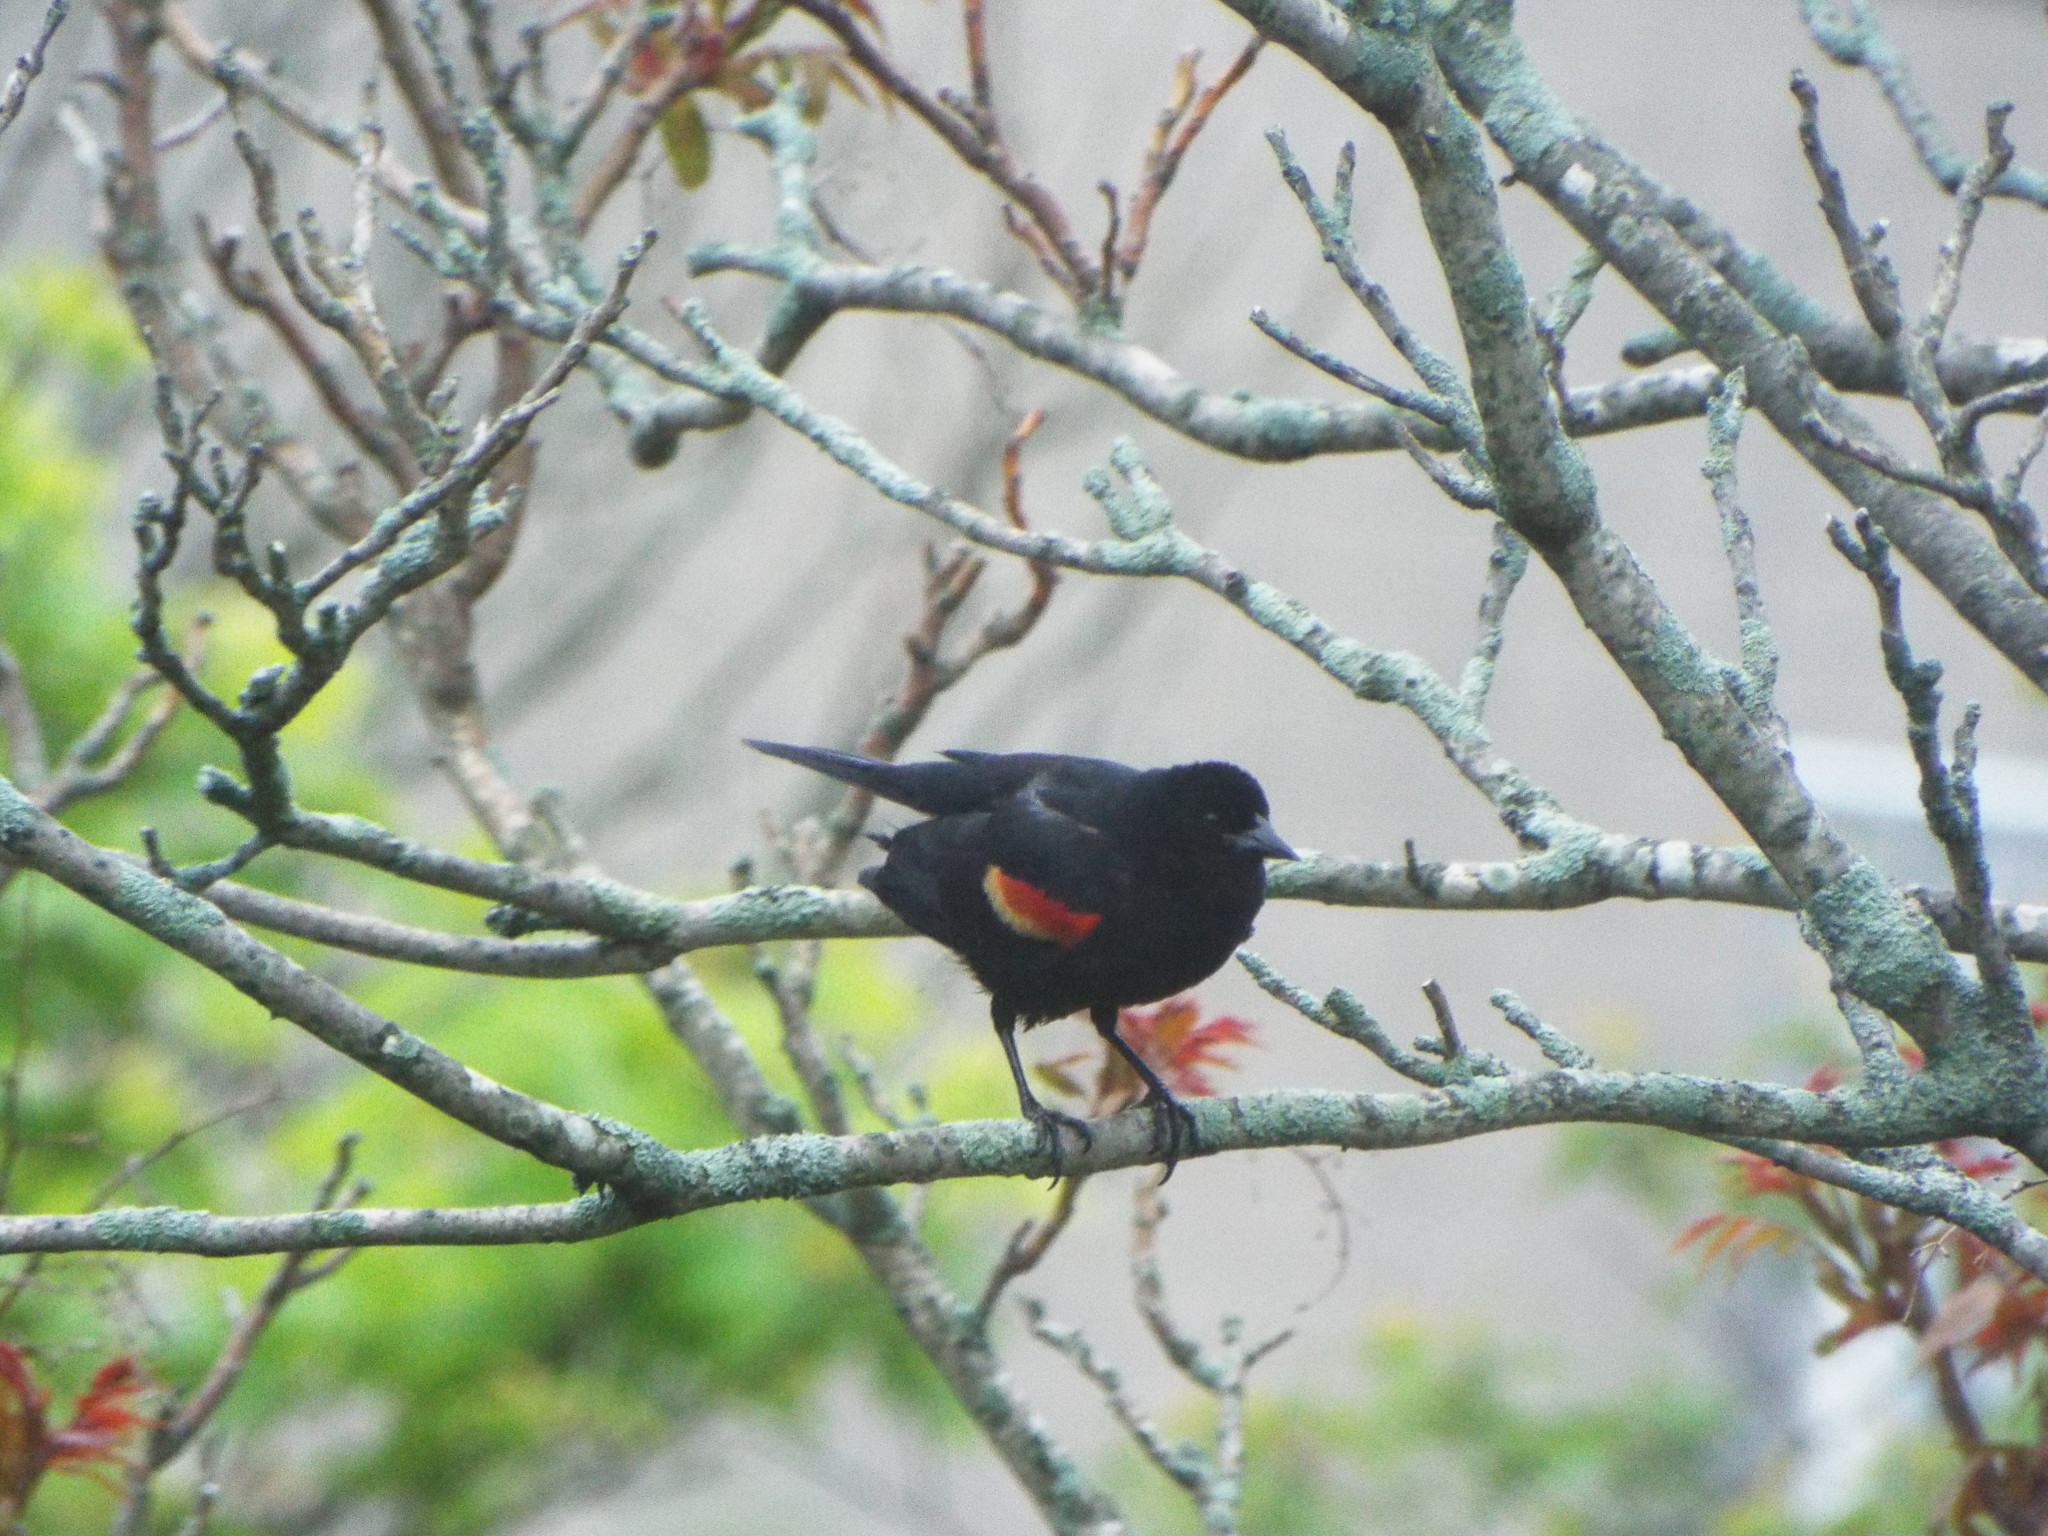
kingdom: Animalia
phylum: Chordata
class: Aves
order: Passeriformes
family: Icteridae
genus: Agelaius
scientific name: Agelaius phoeniceus
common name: Red-winged blackbird
